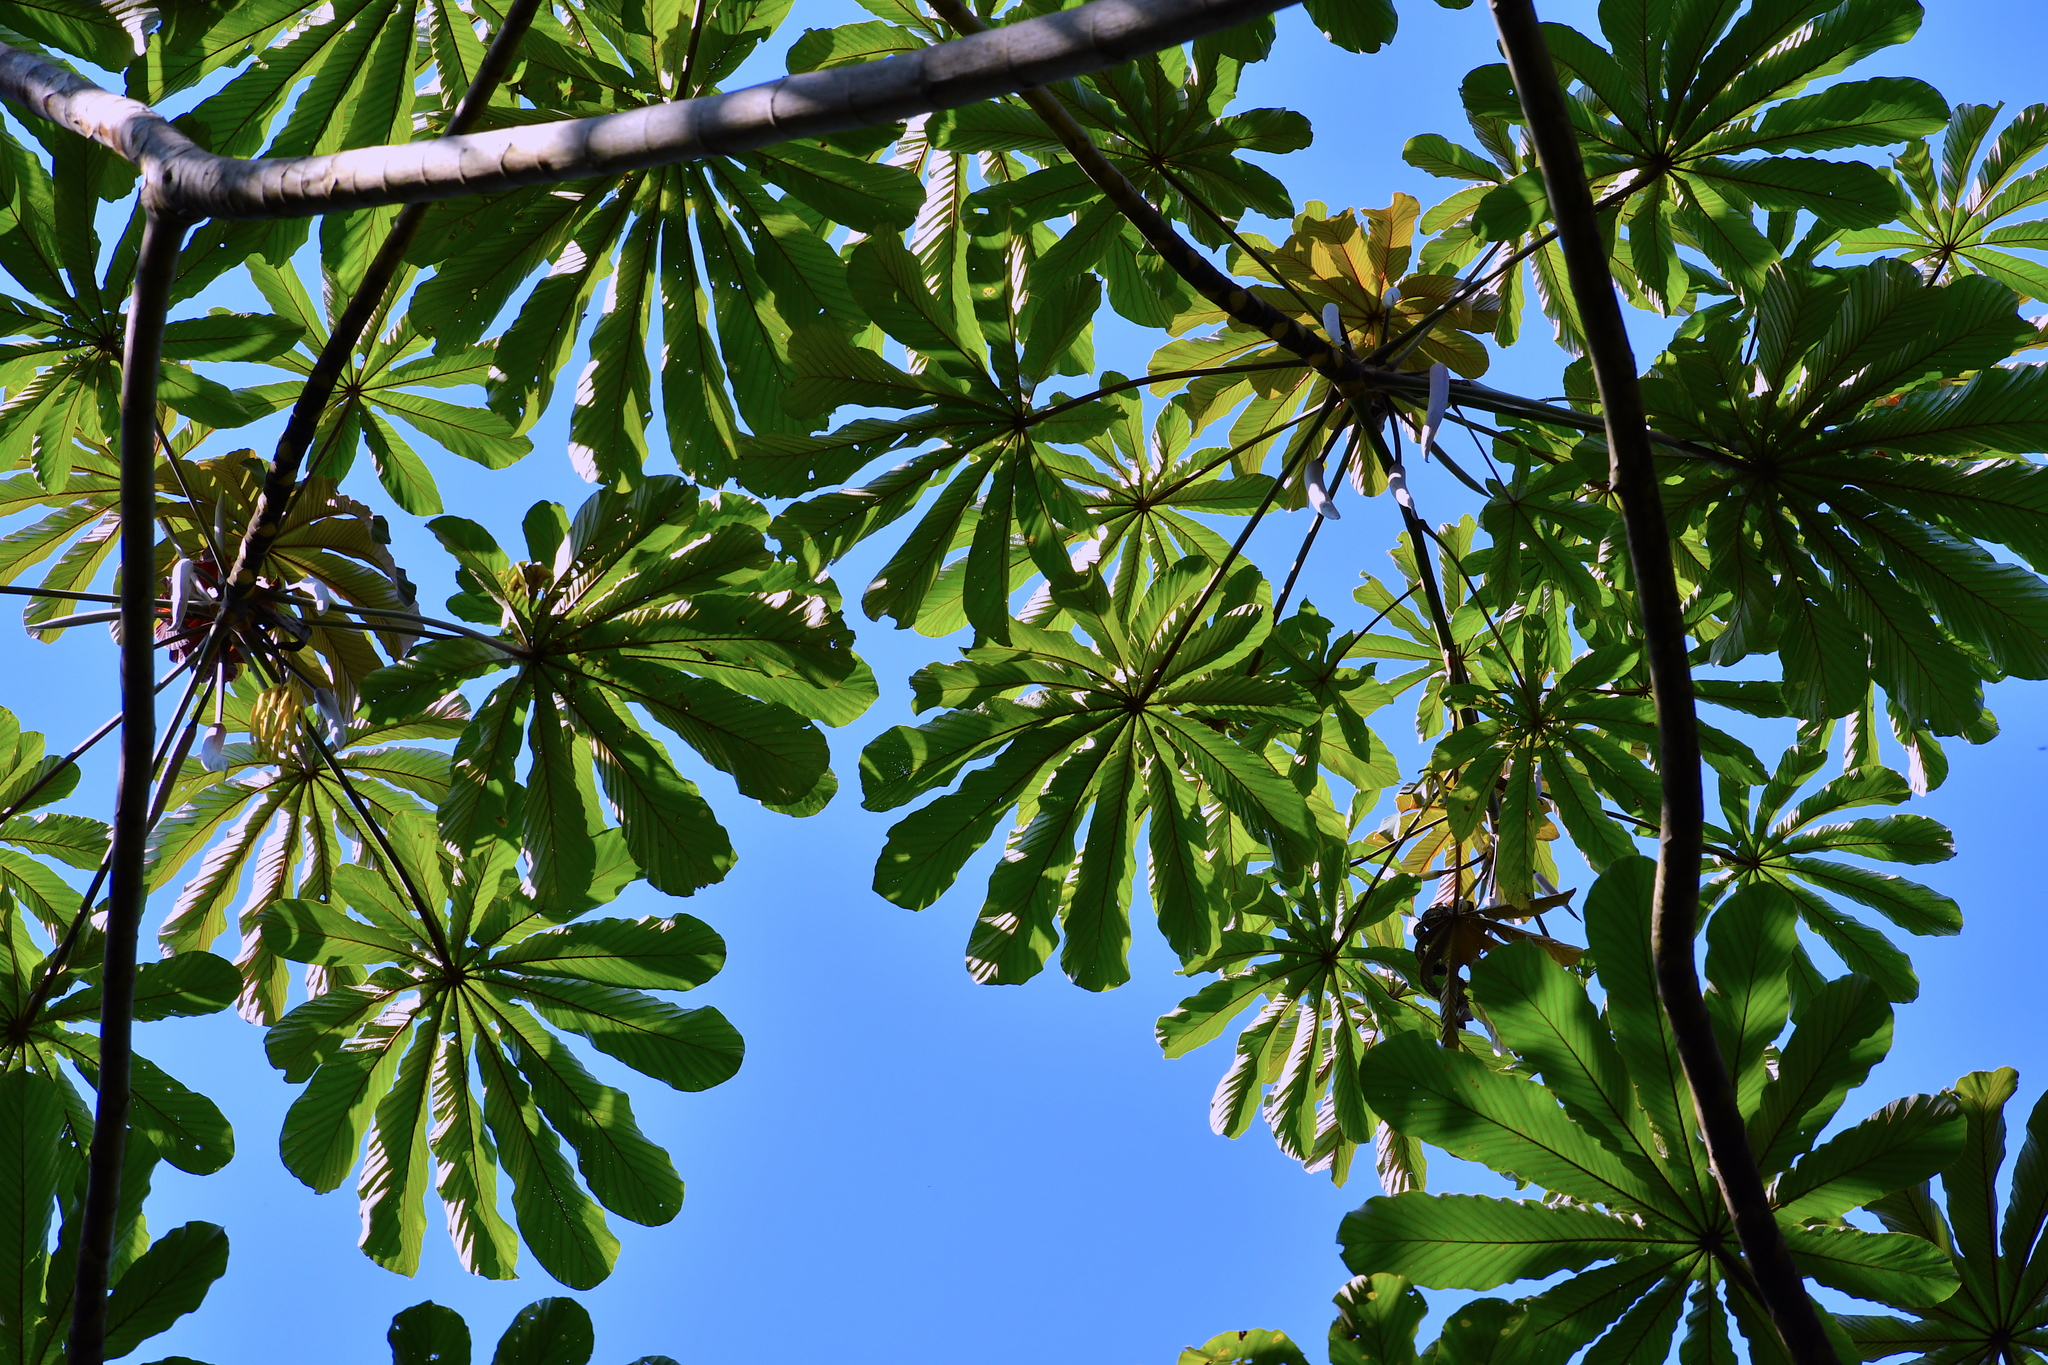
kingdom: Plantae
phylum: Tracheophyta
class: Magnoliopsida
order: Rosales
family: Urticaceae
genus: Cecropia
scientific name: Cecropia obtusifolia
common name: Trumpet tree
